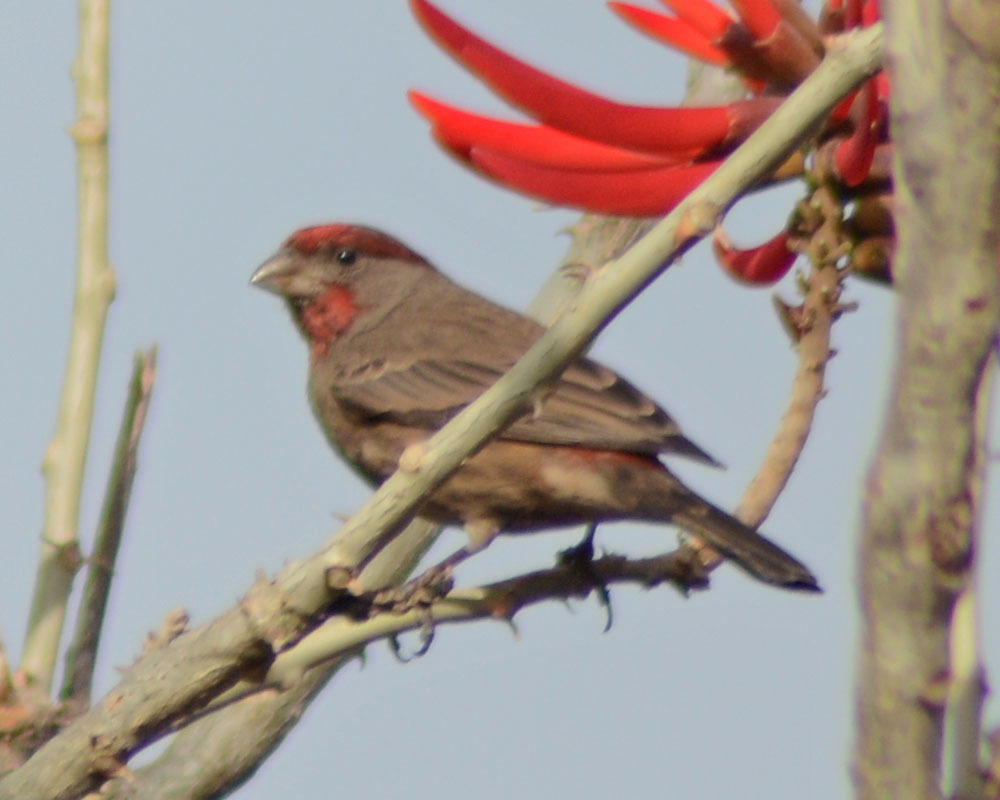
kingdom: Animalia
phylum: Chordata
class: Aves
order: Passeriformes
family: Fringillidae
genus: Haemorhous
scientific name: Haemorhous mexicanus
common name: House finch
